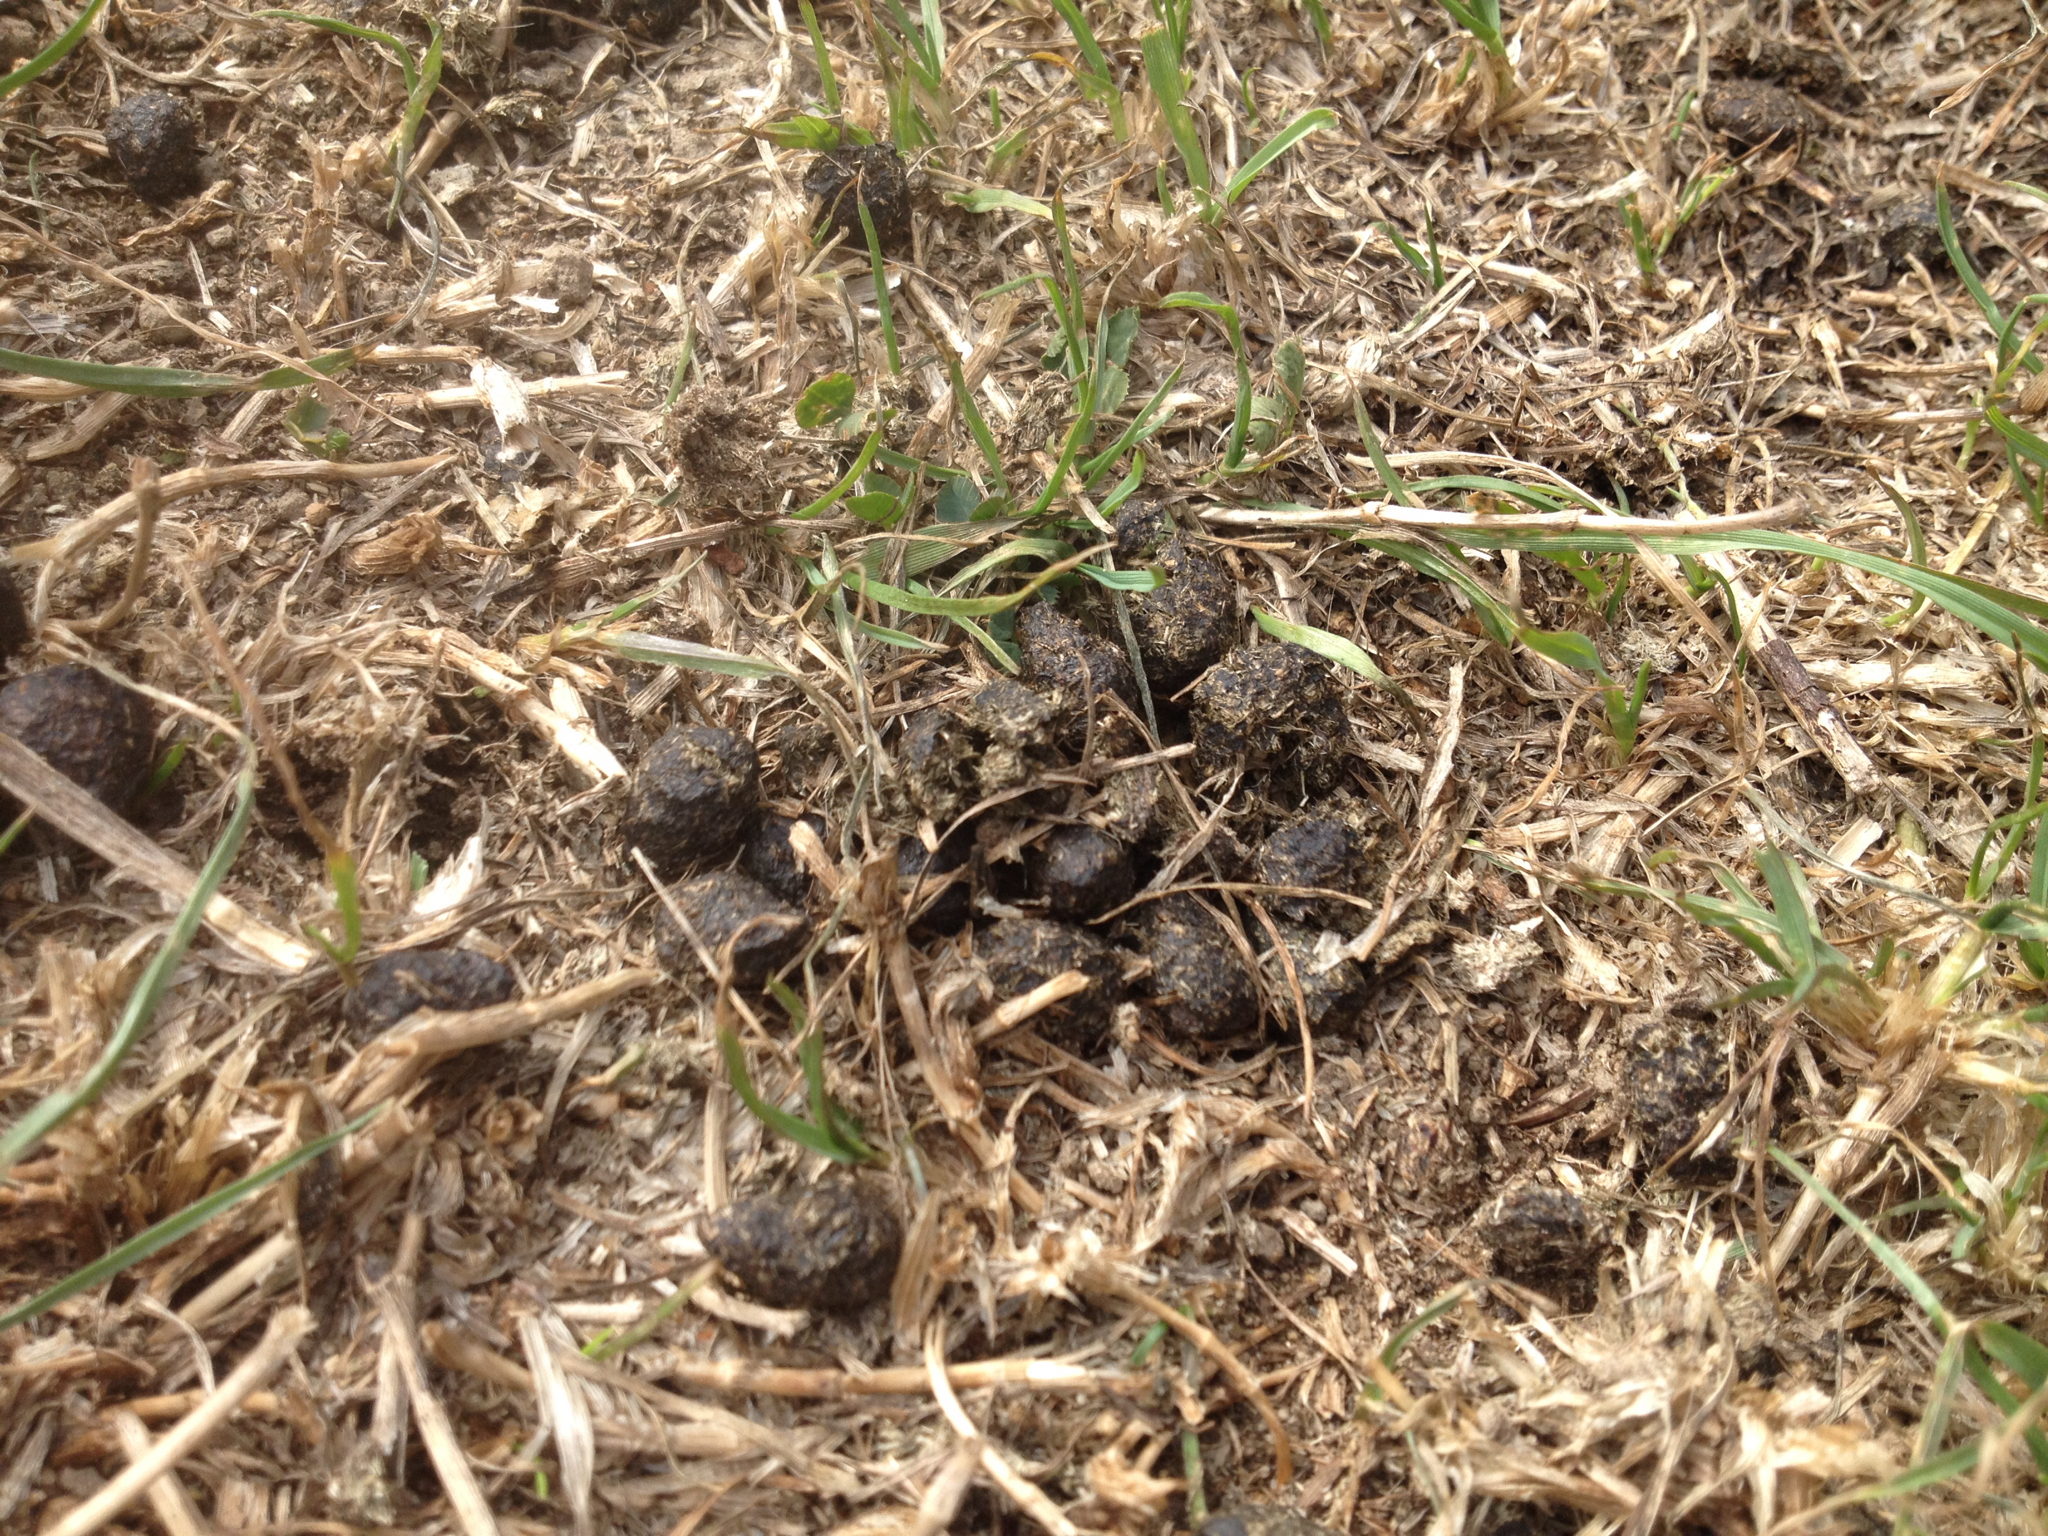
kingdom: Animalia
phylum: Chordata
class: Mammalia
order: Lagomorpha
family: Leporidae
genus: Oryctolagus
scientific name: Oryctolagus cuniculus
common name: European rabbit
